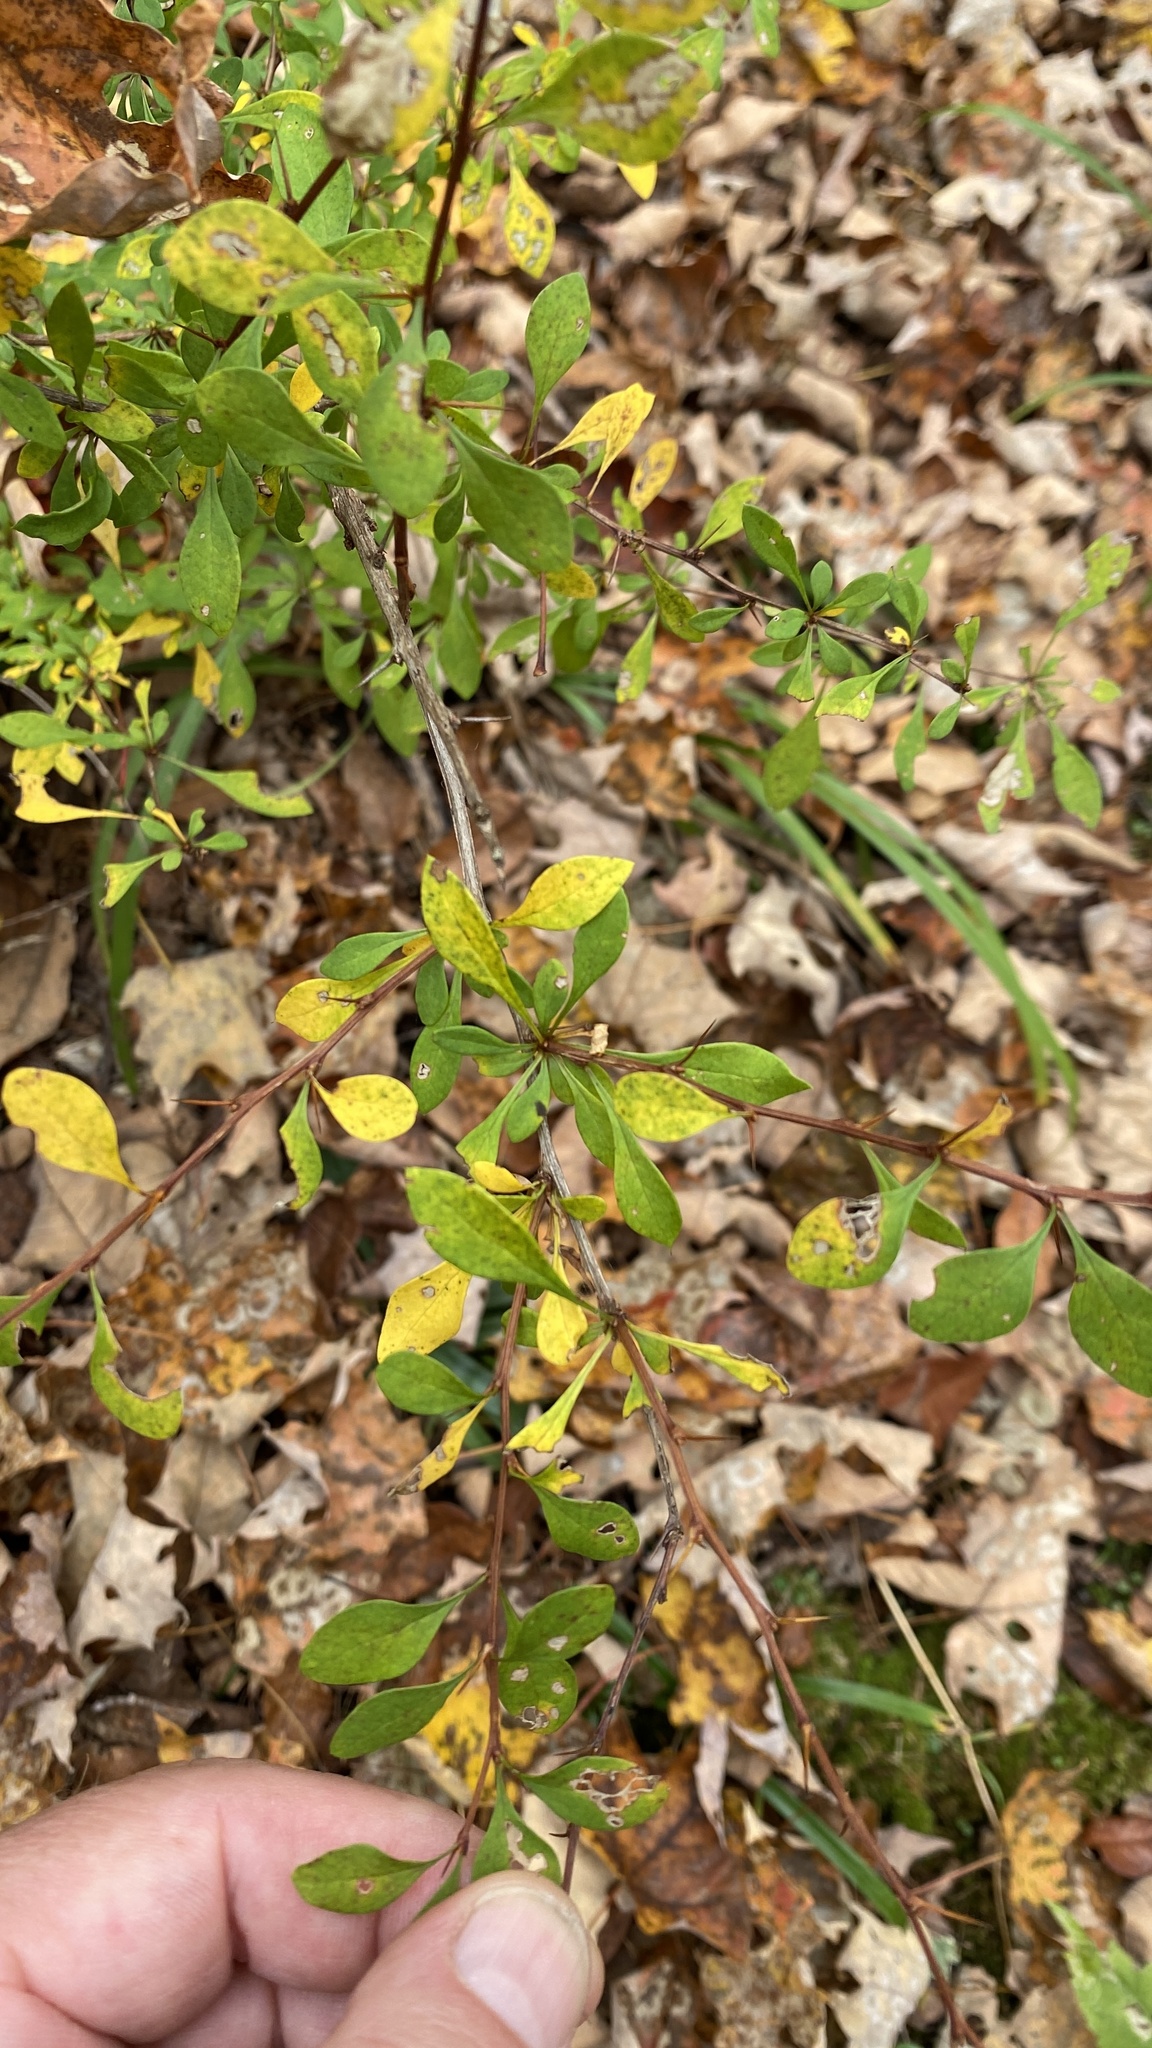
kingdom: Plantae
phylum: Tracheophyta
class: Magnoliopsida
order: Ranunculales
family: Berberidaceae
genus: Berberis
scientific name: Berberis thunbergii
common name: Japanese barberry
